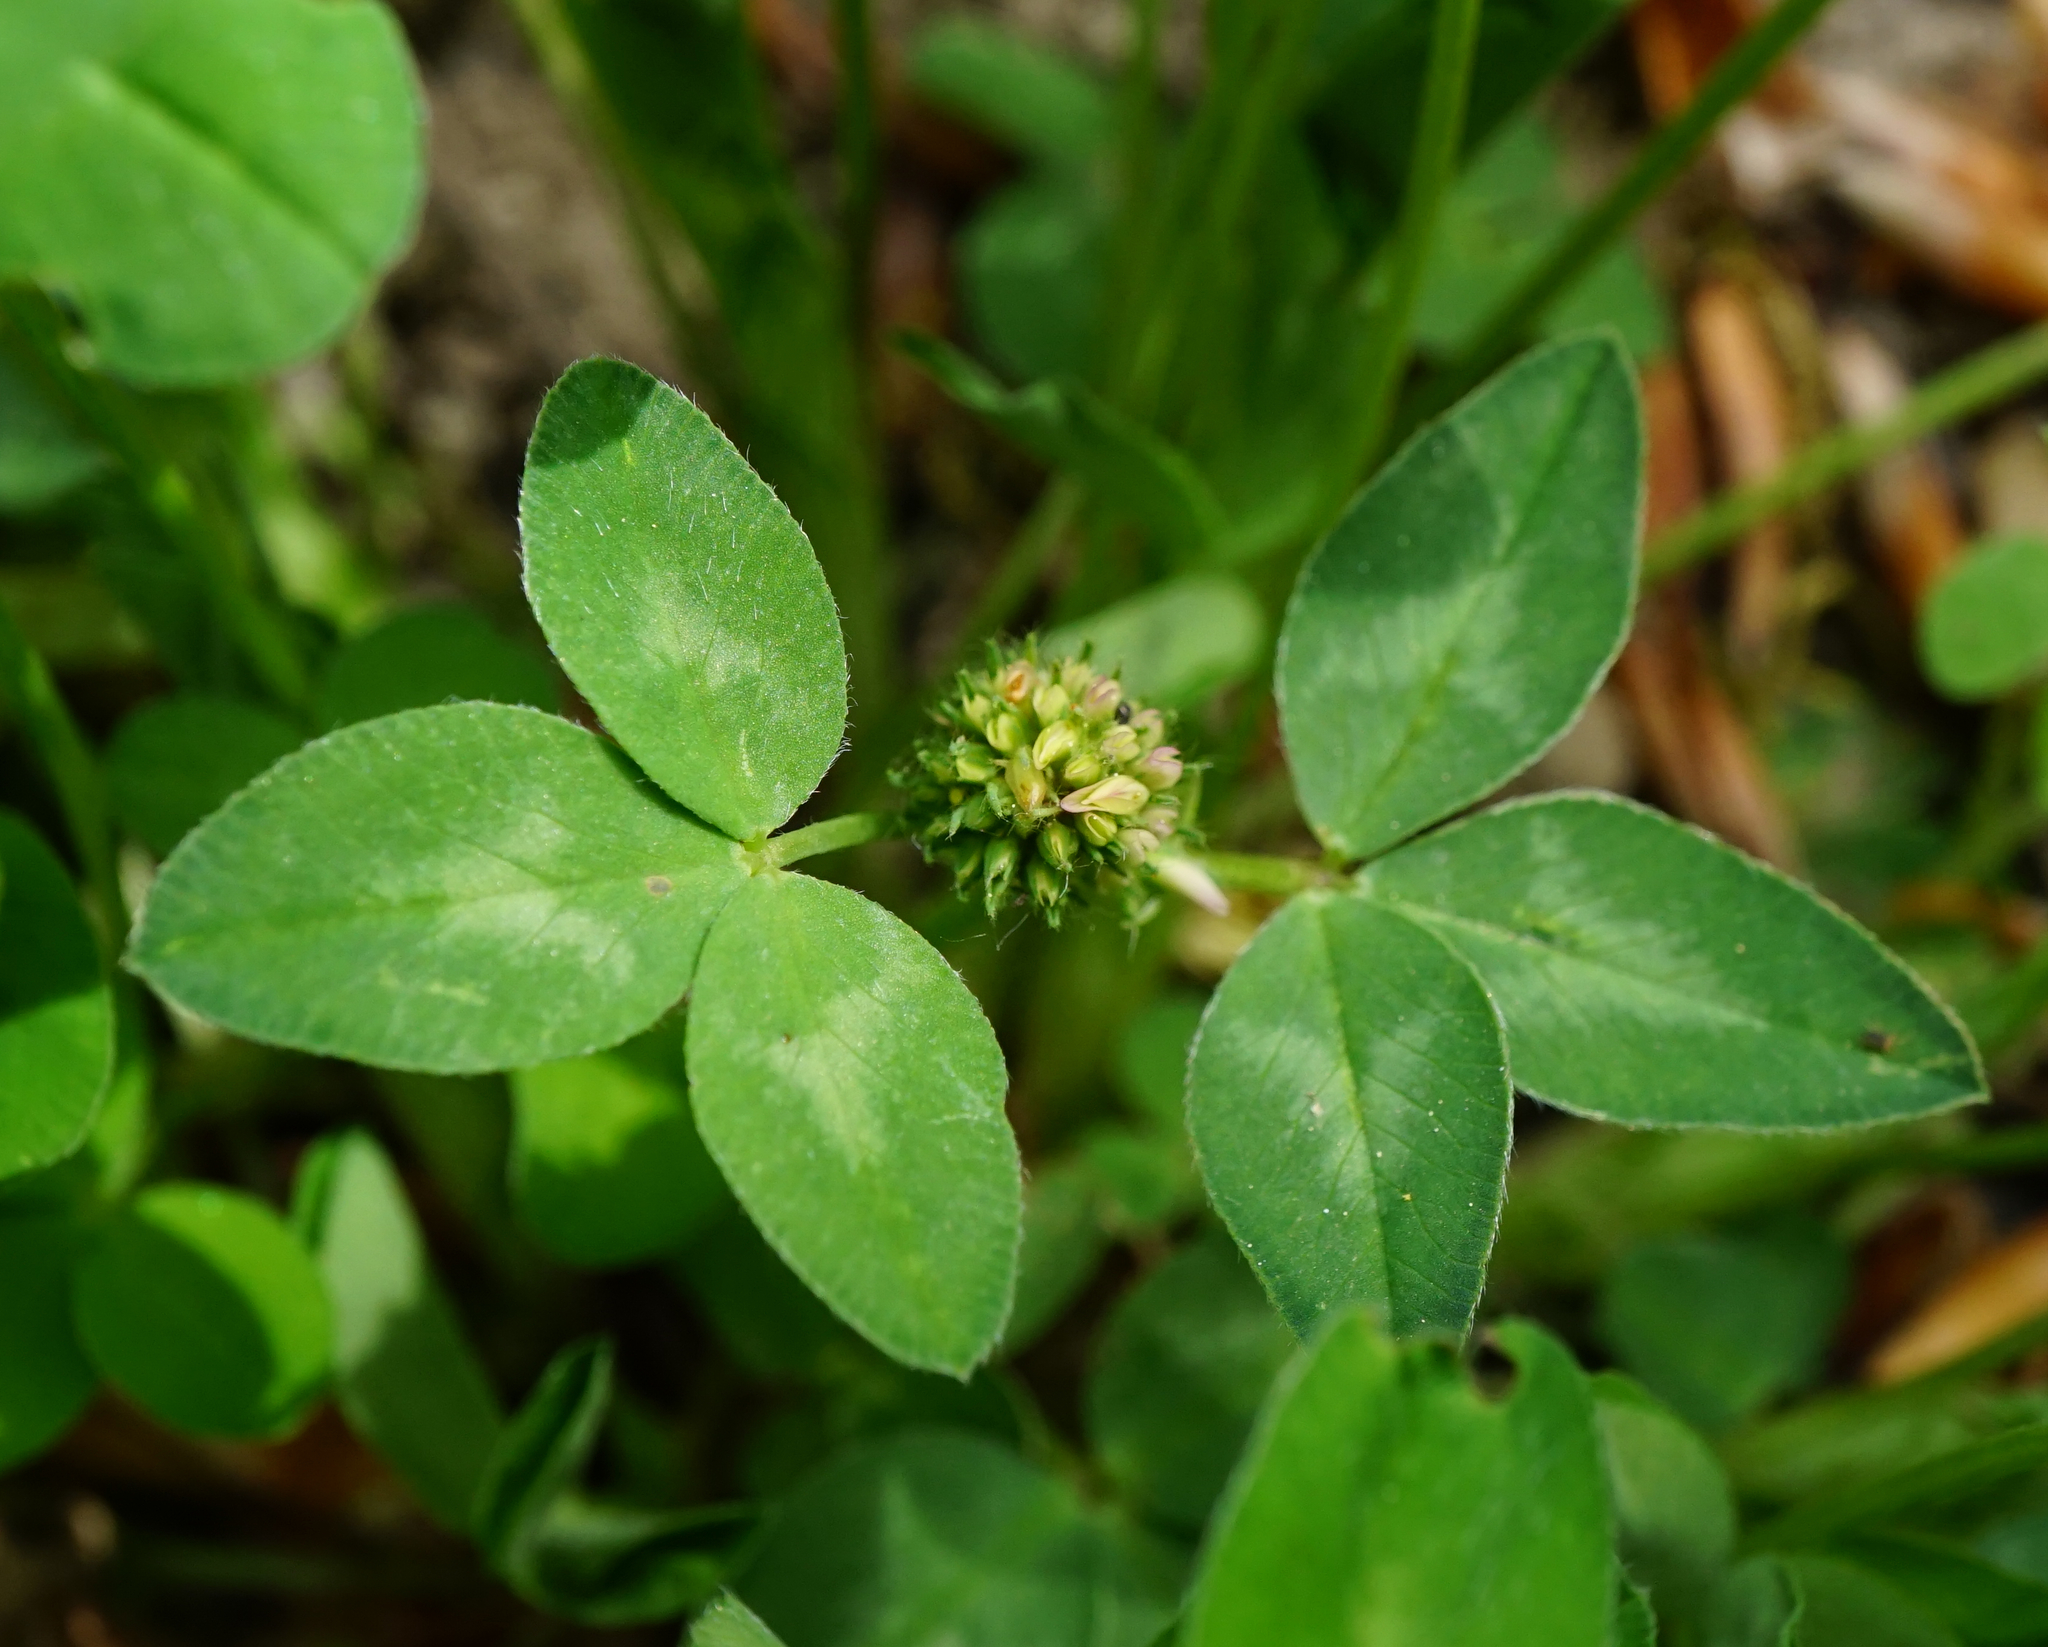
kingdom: Plantae
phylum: Tracheophyta
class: Magnoliopsida
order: Fabales
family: Fabaceae
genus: Trifolium
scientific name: Trifolium pratense
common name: Red clover
